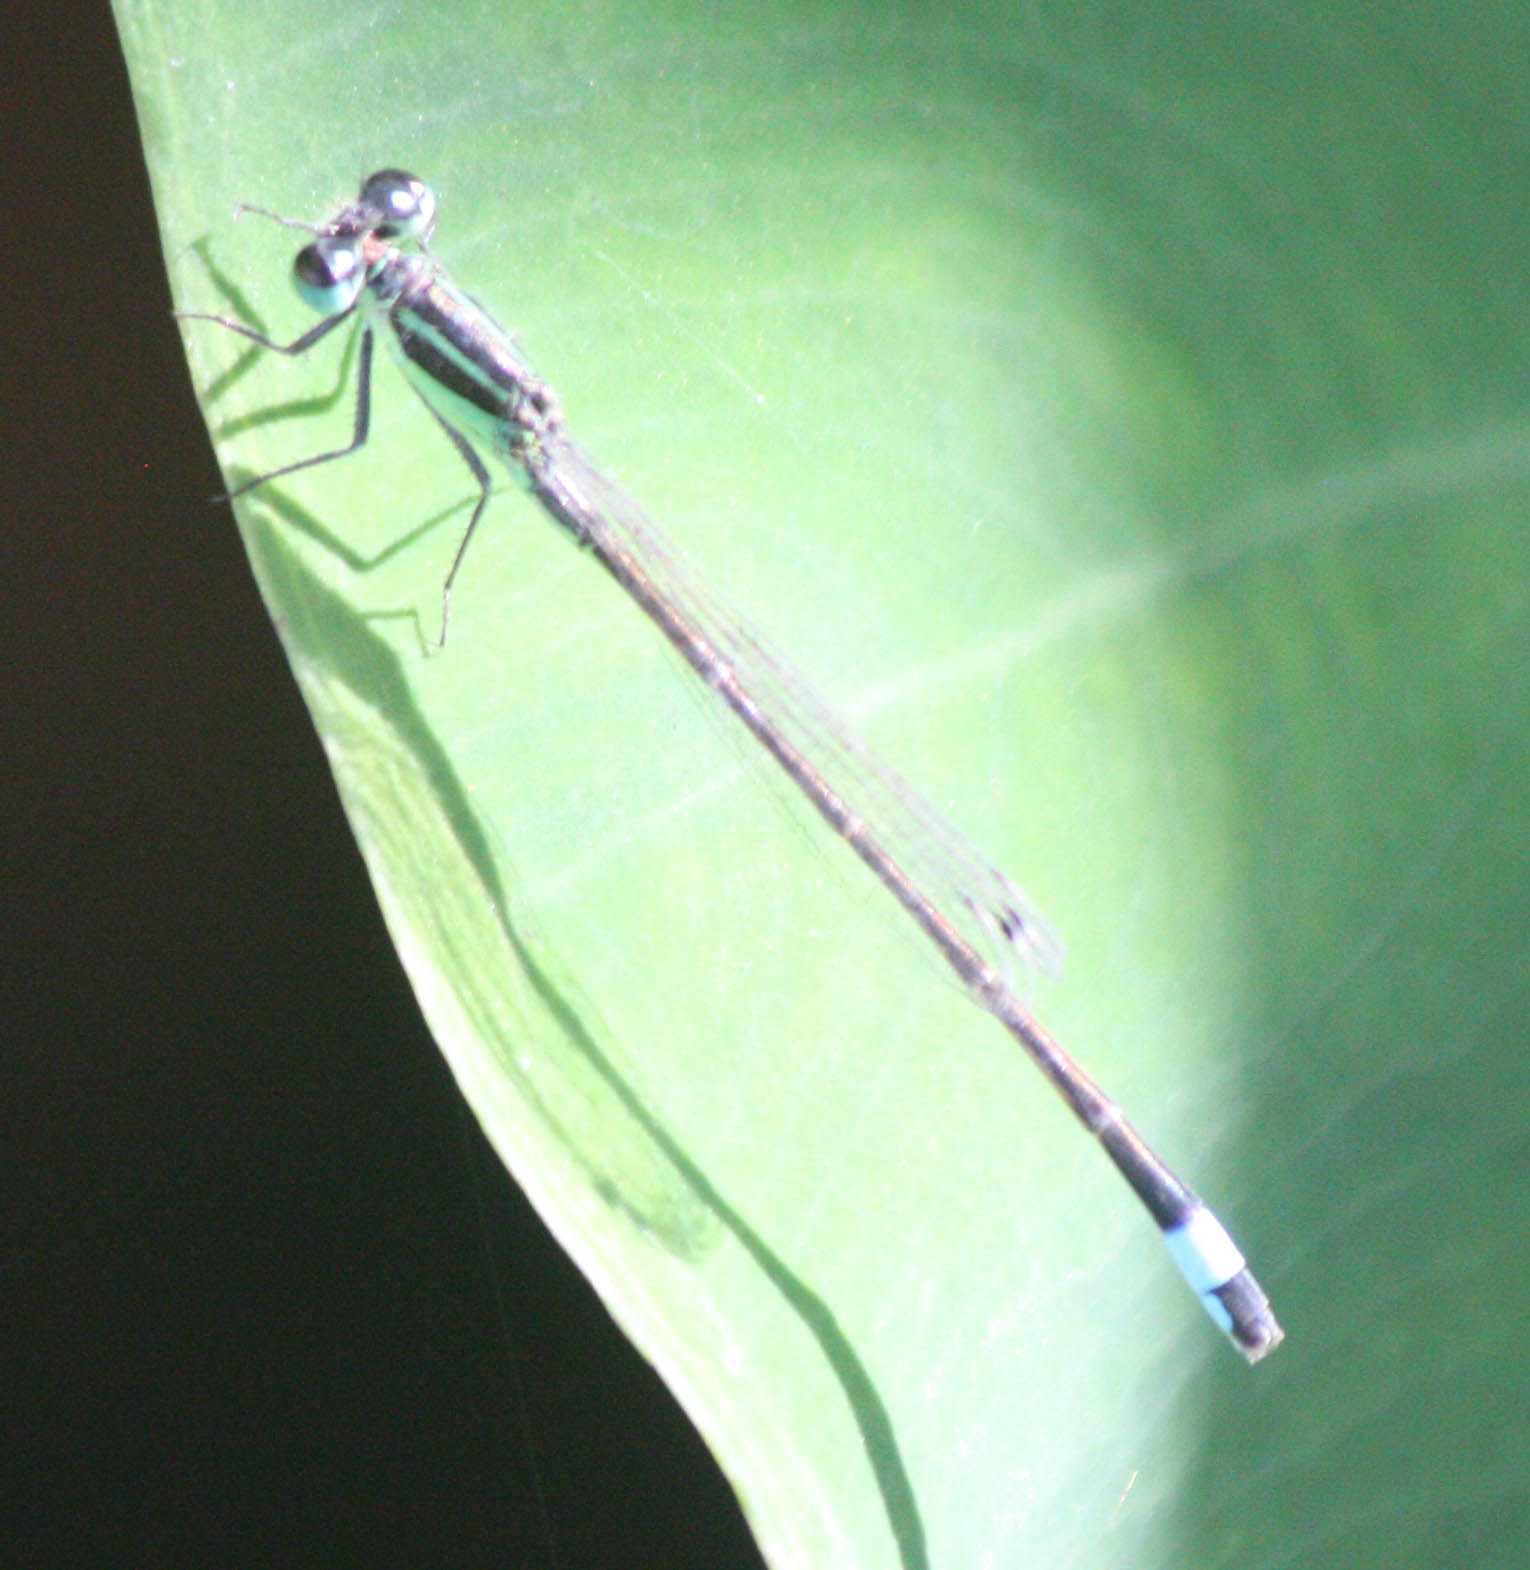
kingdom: Animalia
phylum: Arthropoda
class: Insecta
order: Odonata
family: Coenagrionidae
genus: Ischnura
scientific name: Ischnura ramburii
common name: Rambur's forktail
